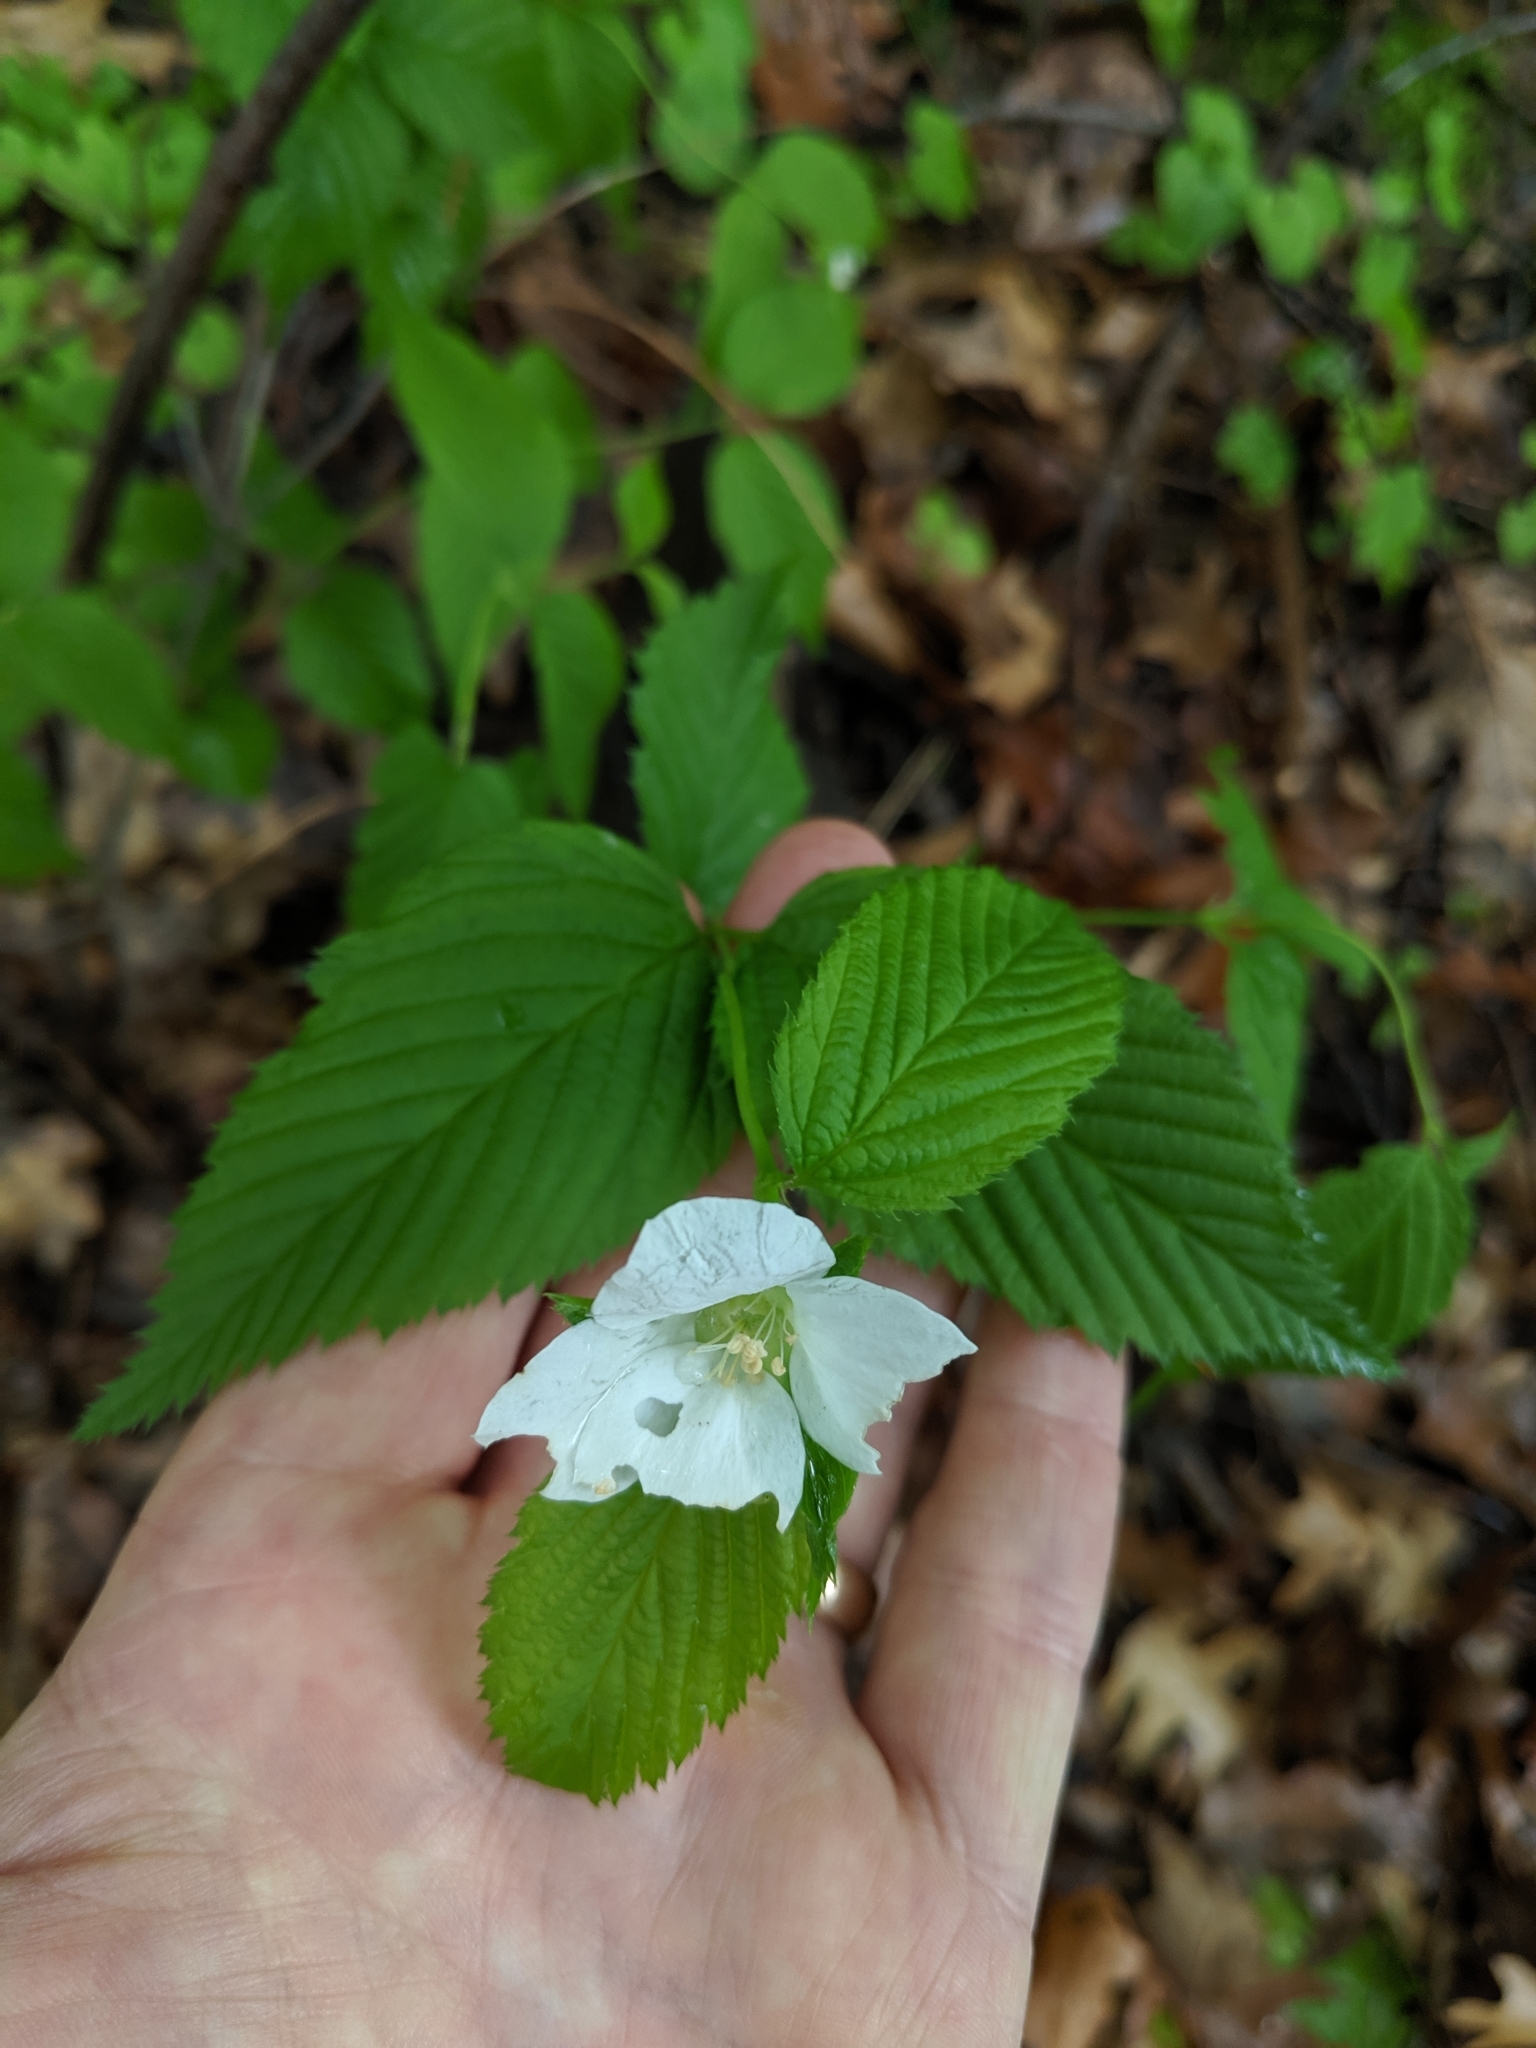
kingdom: Plantae
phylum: Tracheophyta
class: Magnoliopsida
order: Rosales
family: Rosaceae
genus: Rhodotypos
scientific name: Rhodotypos scandens
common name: Jetbead
